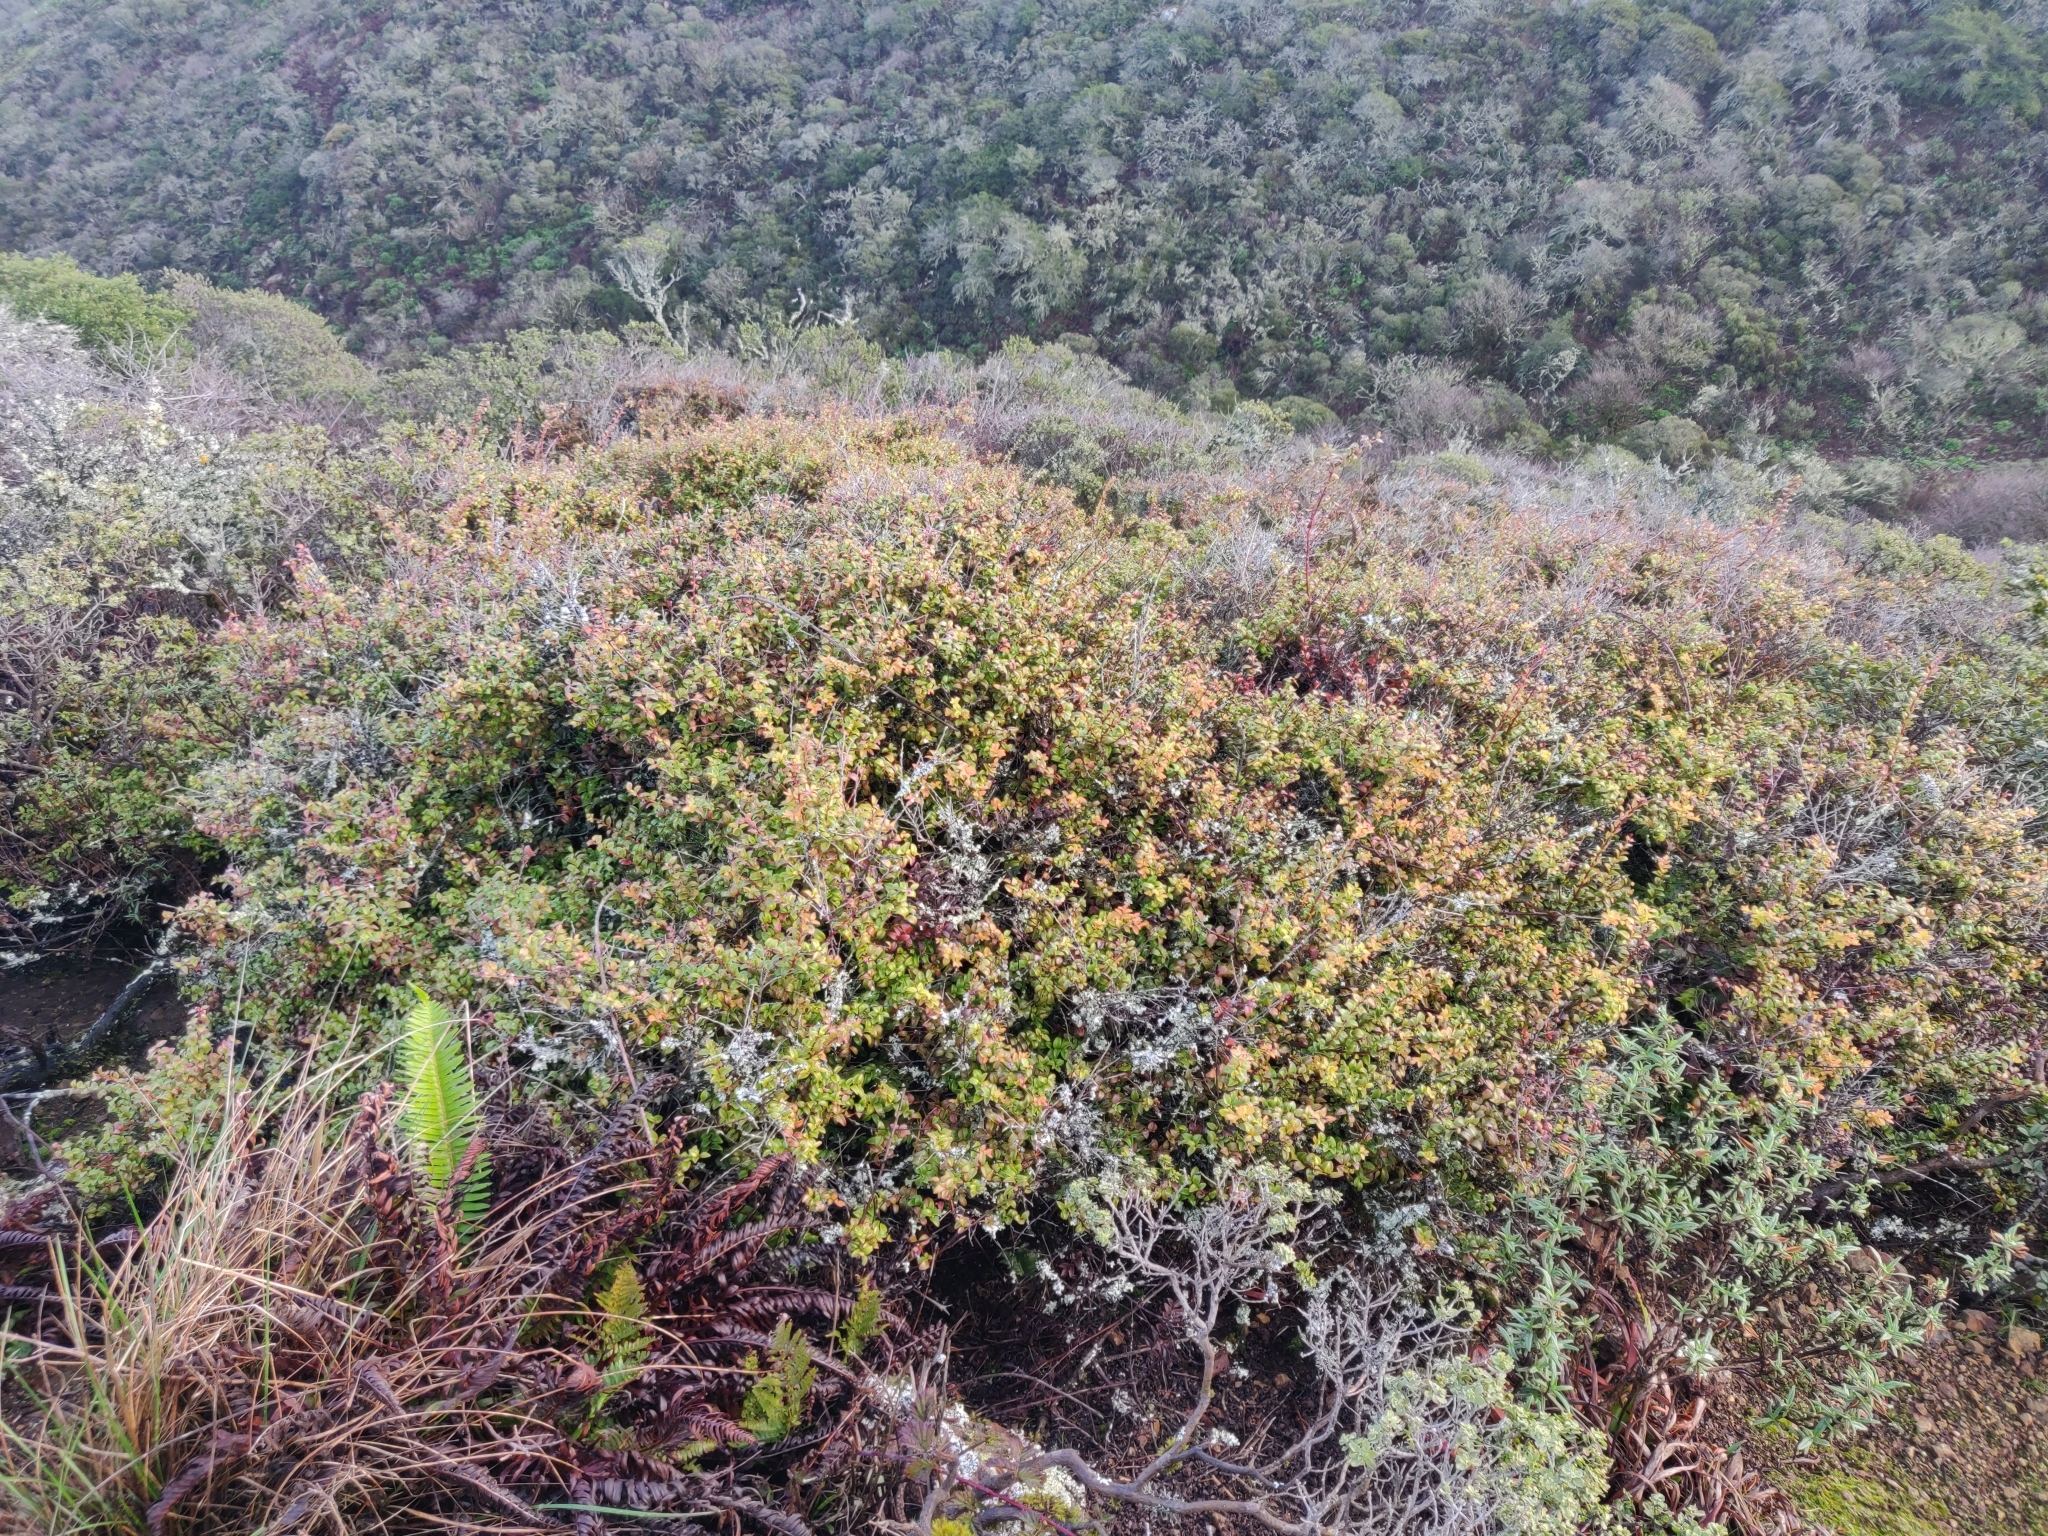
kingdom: Plantae
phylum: Tracheophyta
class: Magnoliopsida
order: Ericales
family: Ericaceae
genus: Vaccinium
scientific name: Vaccinium ovatum
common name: California-huckleberry
